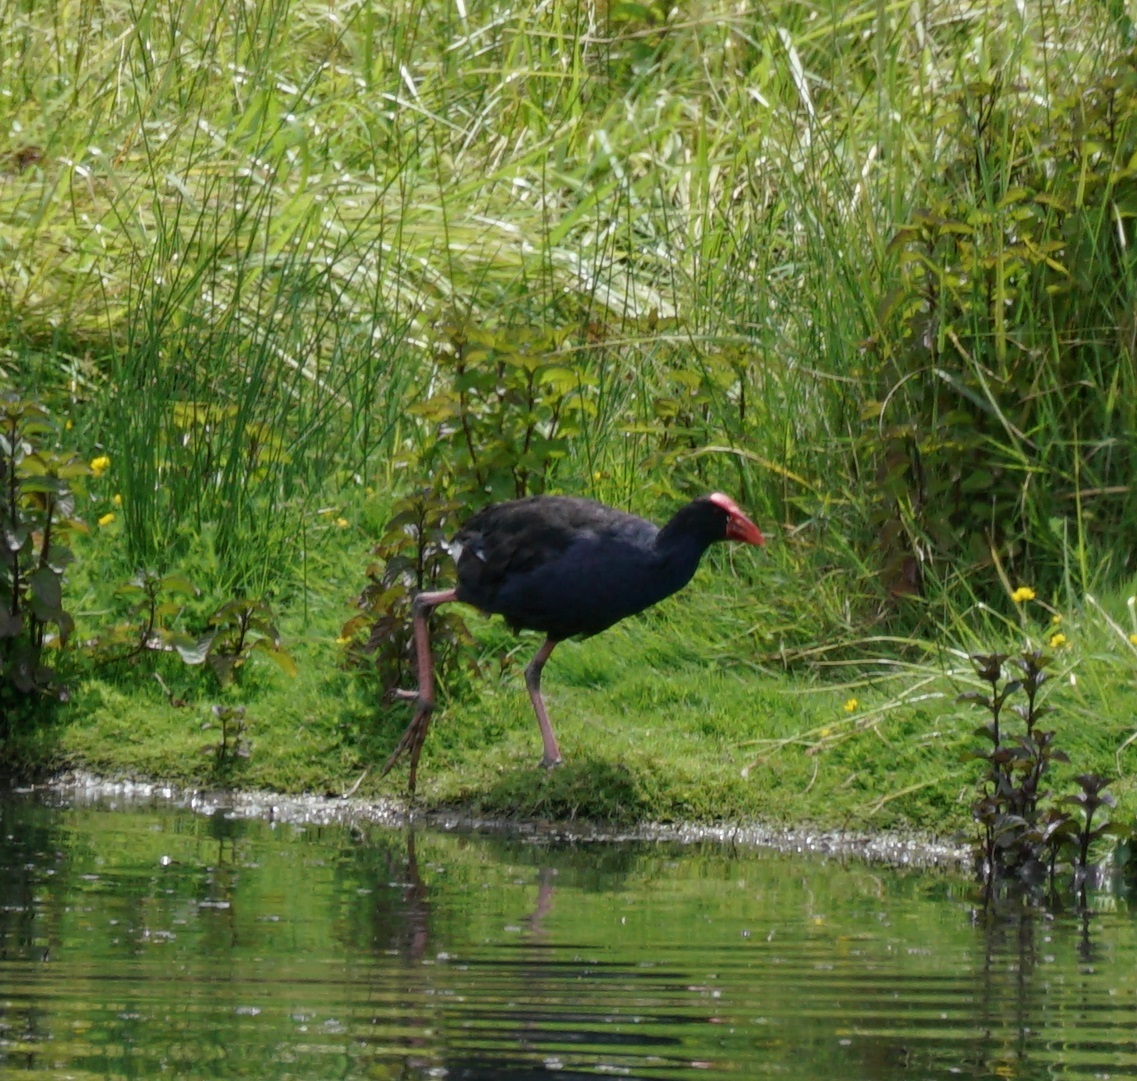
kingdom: Animalia
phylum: Chordata
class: Aves
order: Gruiformes
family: Rallidae
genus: Porphyrio
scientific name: Porphyrio melanotus
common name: Australasian swamphen
